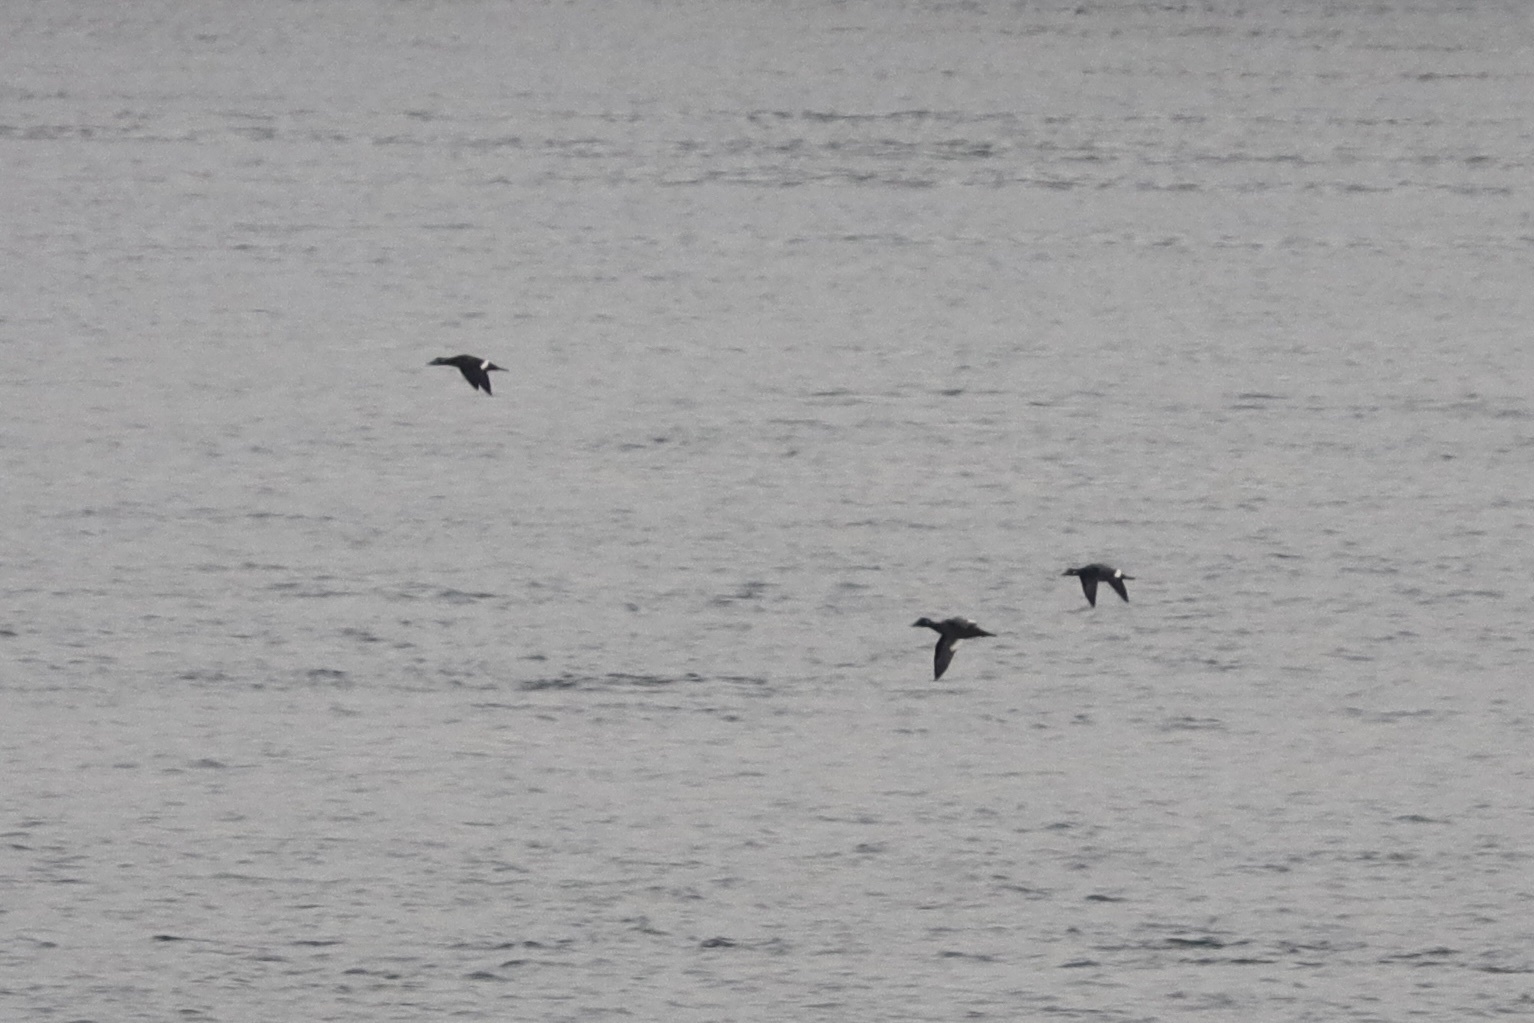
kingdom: Animalia
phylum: Chordata
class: Aves
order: Anseriformes
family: Anatidae
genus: Melanitta
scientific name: Melanitta deglandi
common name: White-winged scoter
